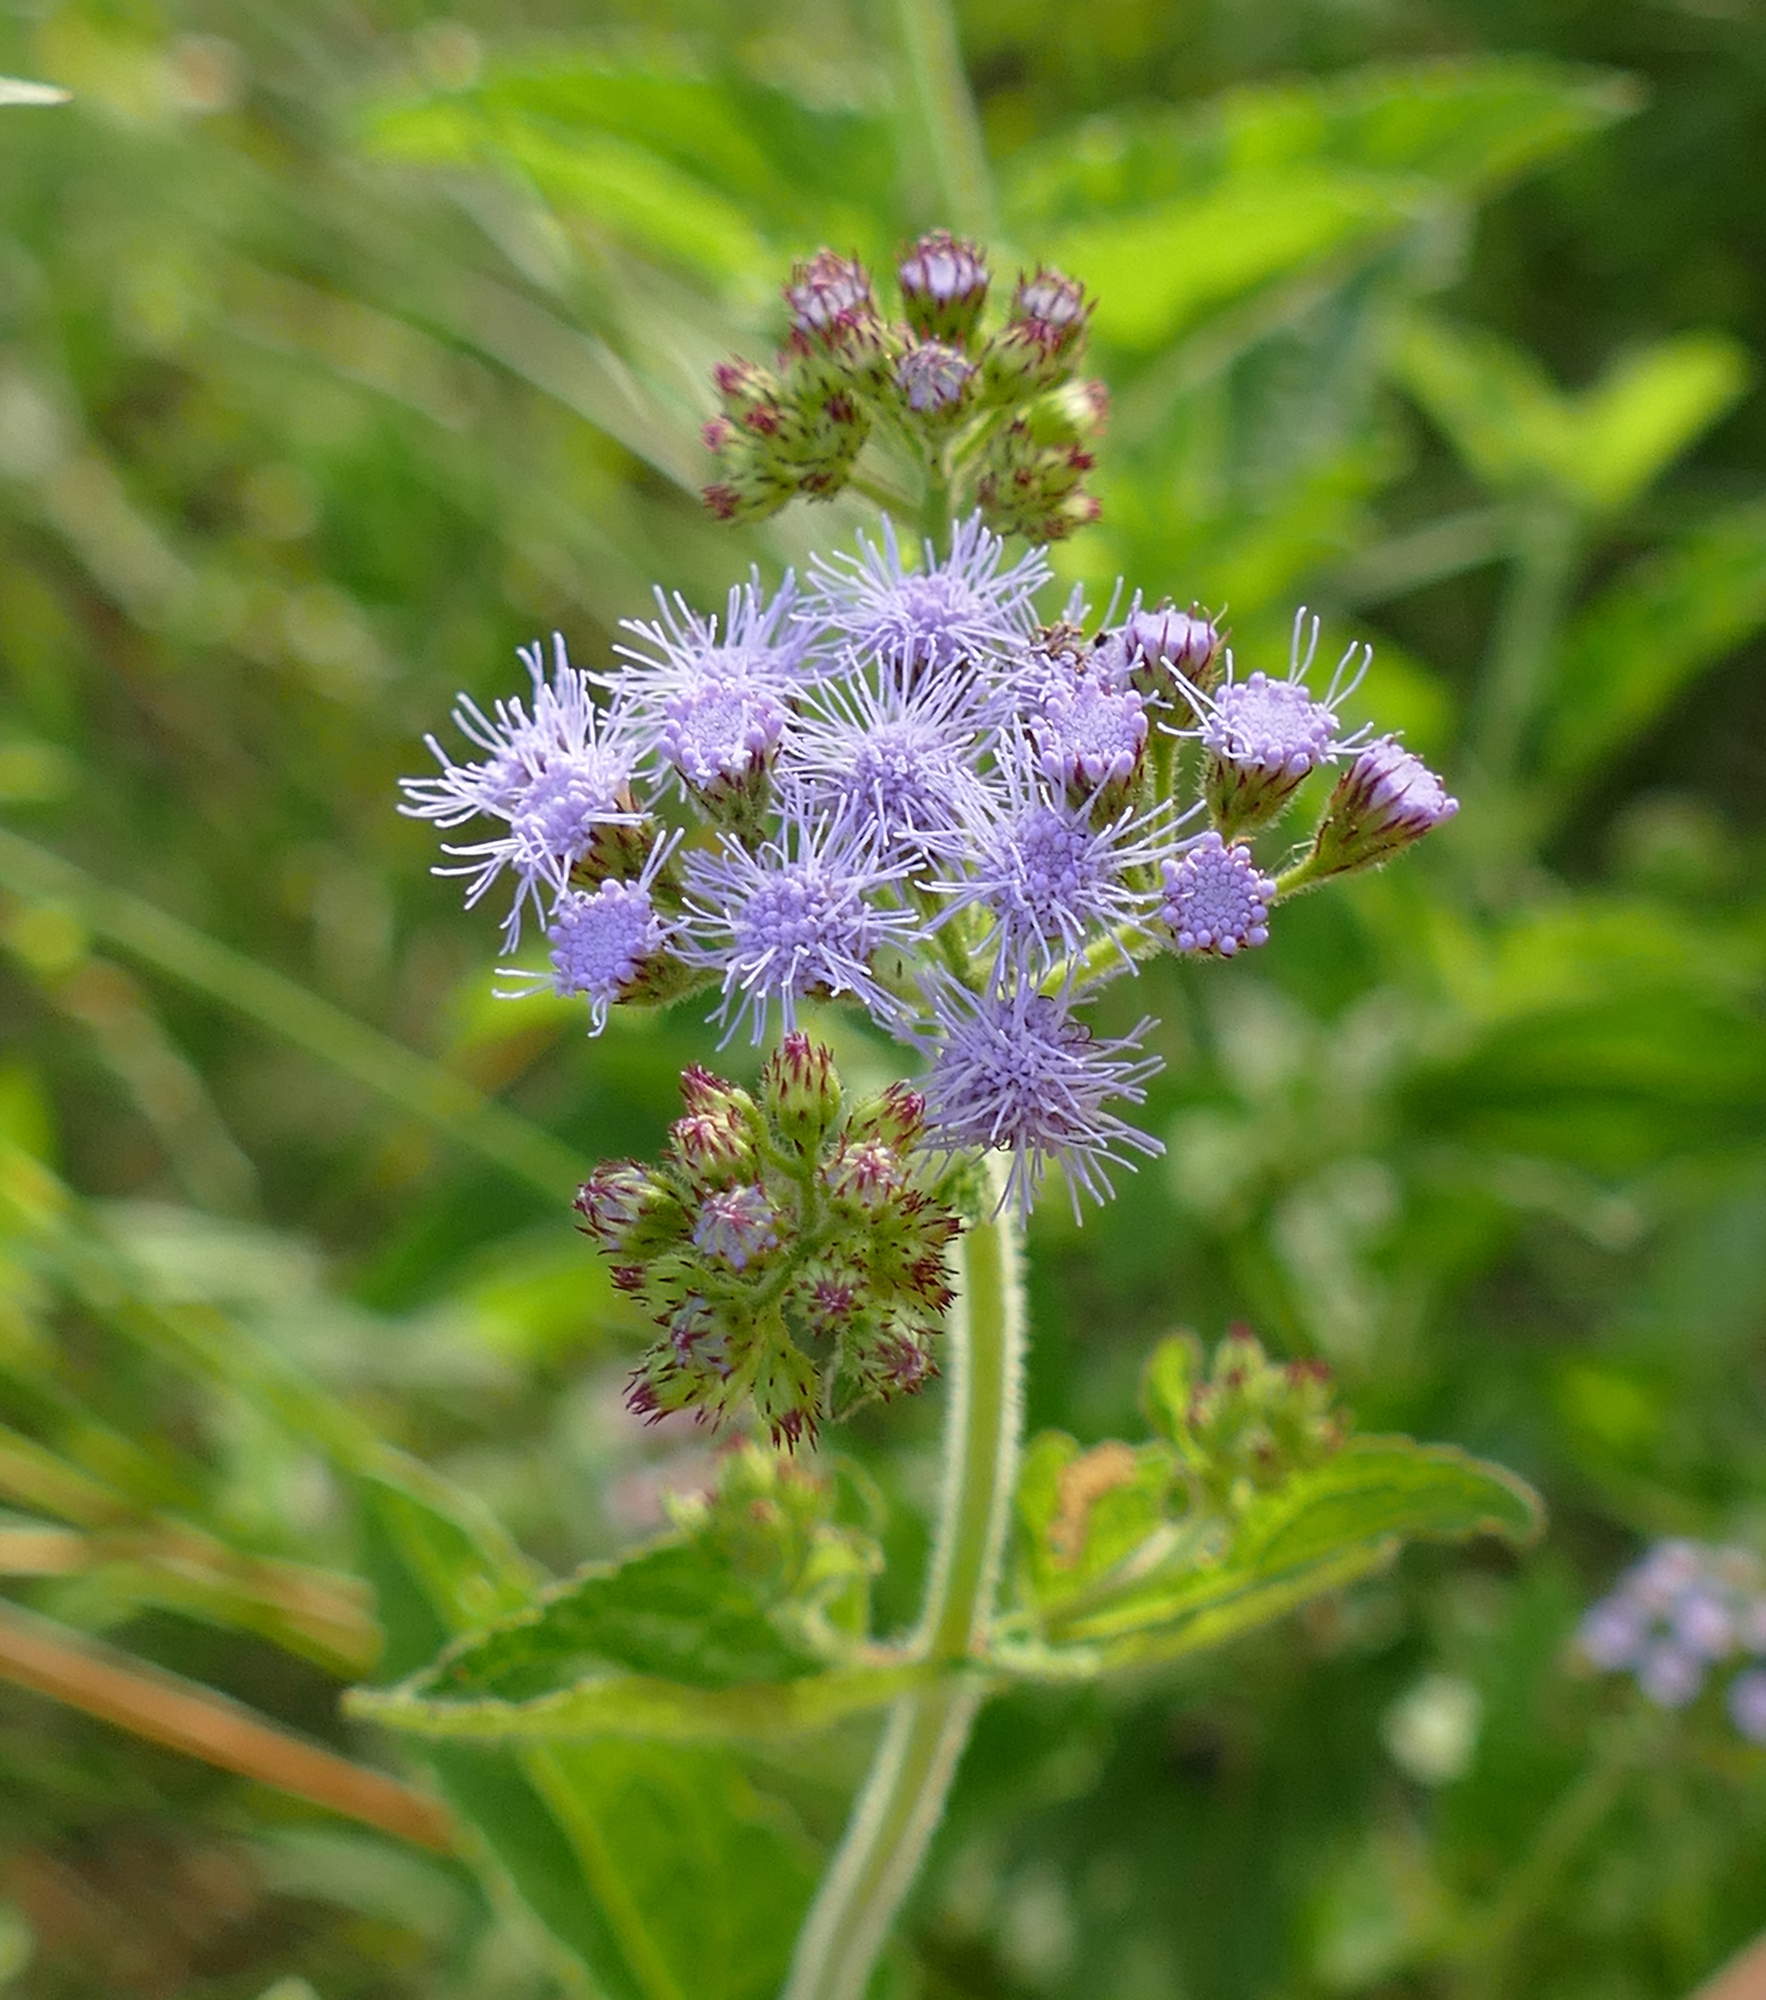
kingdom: Plantae
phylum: Tracheophyta
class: Magnoliopsida
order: Asterales
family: Asteraceae
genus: Conoclinium
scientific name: Conoclinium coelestinum
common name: Blue mistflower
